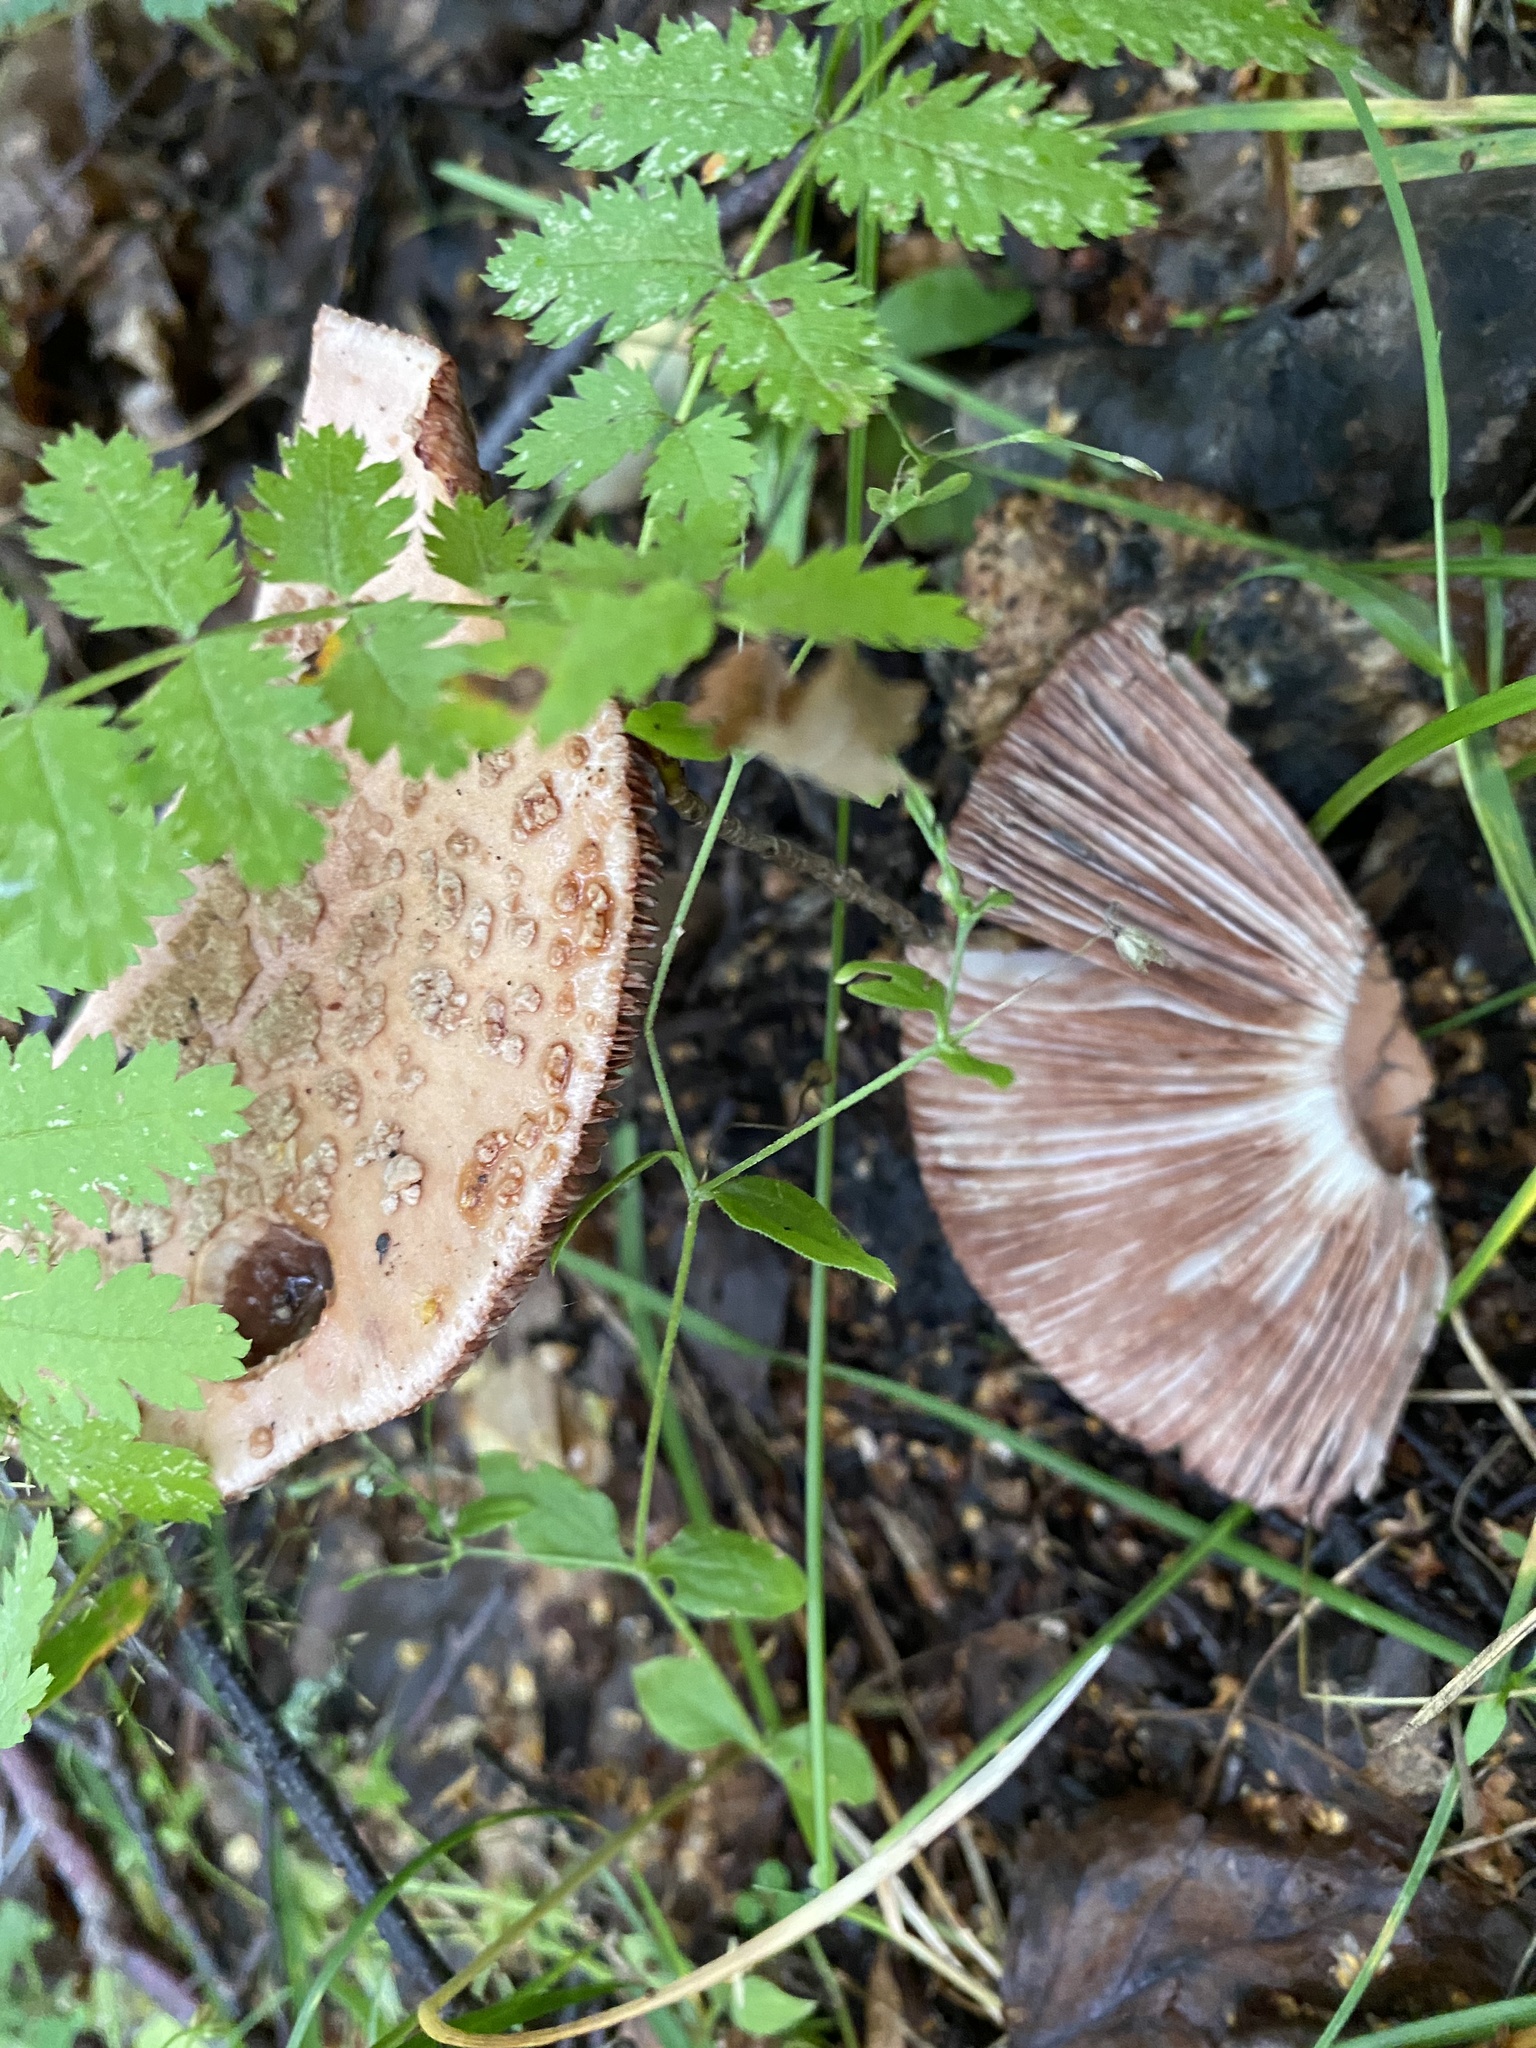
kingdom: Fungi
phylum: Basidiomycota
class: Agaricomycetes
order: Agaricales
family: Amanitaceae
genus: Amanita
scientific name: Amanita rubescens
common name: Blusher
